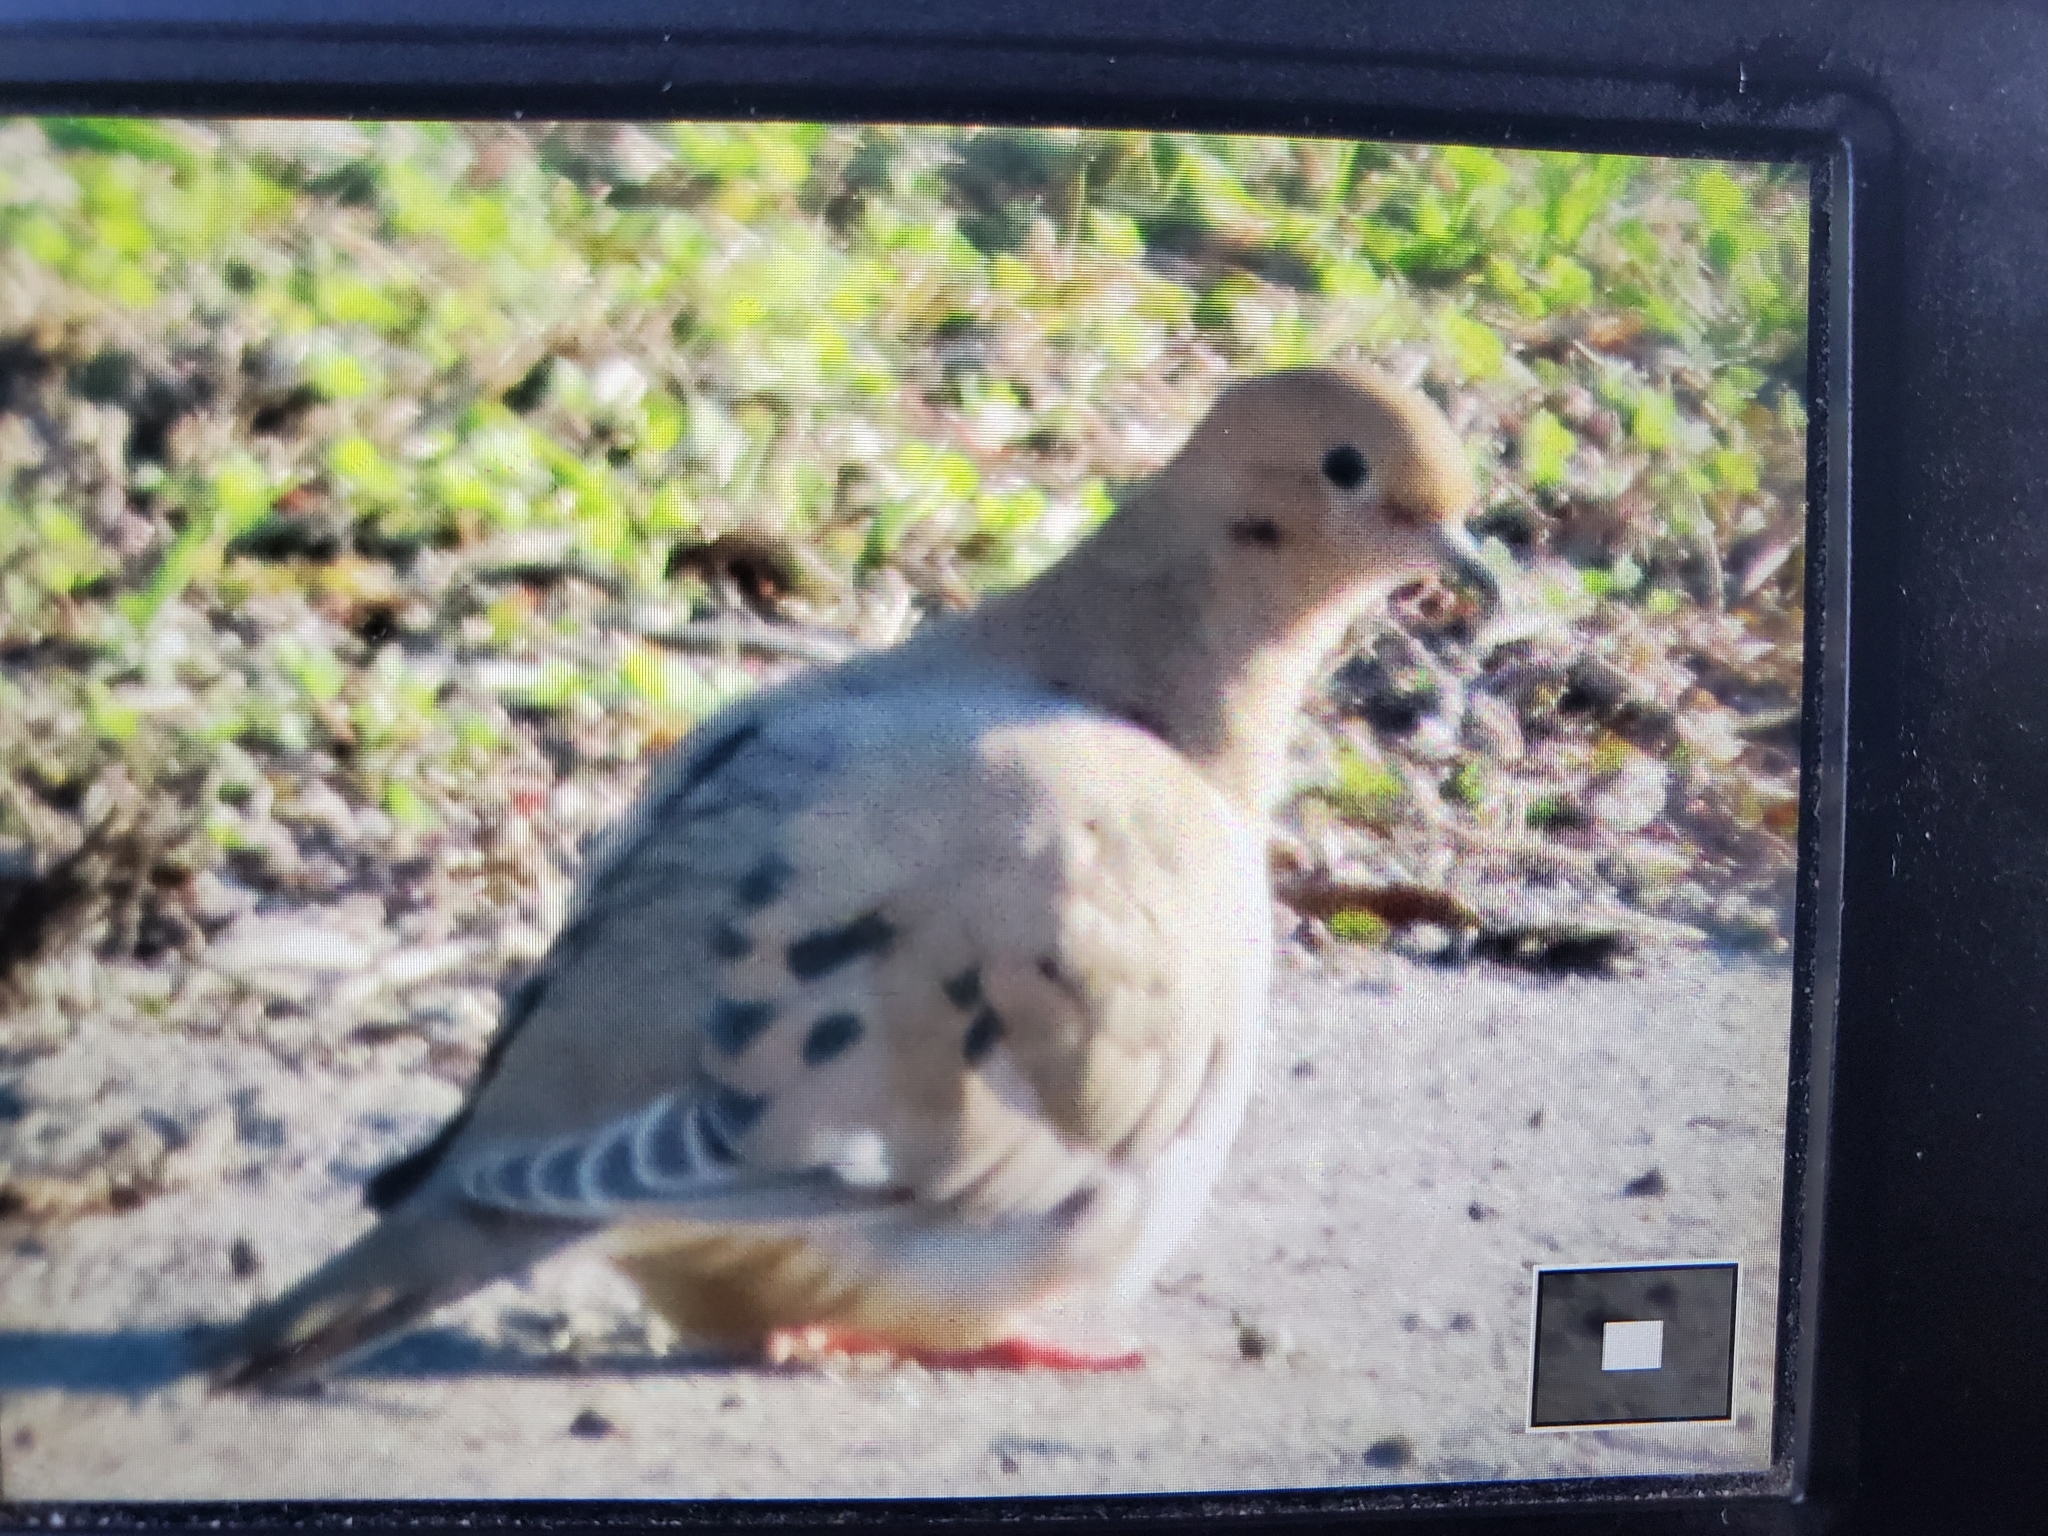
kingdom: Animalia
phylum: Chordata
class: Aves
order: Columbiformes
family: Columbidae
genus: Zenaida
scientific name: Zenaida macroura
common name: Mourning dove
